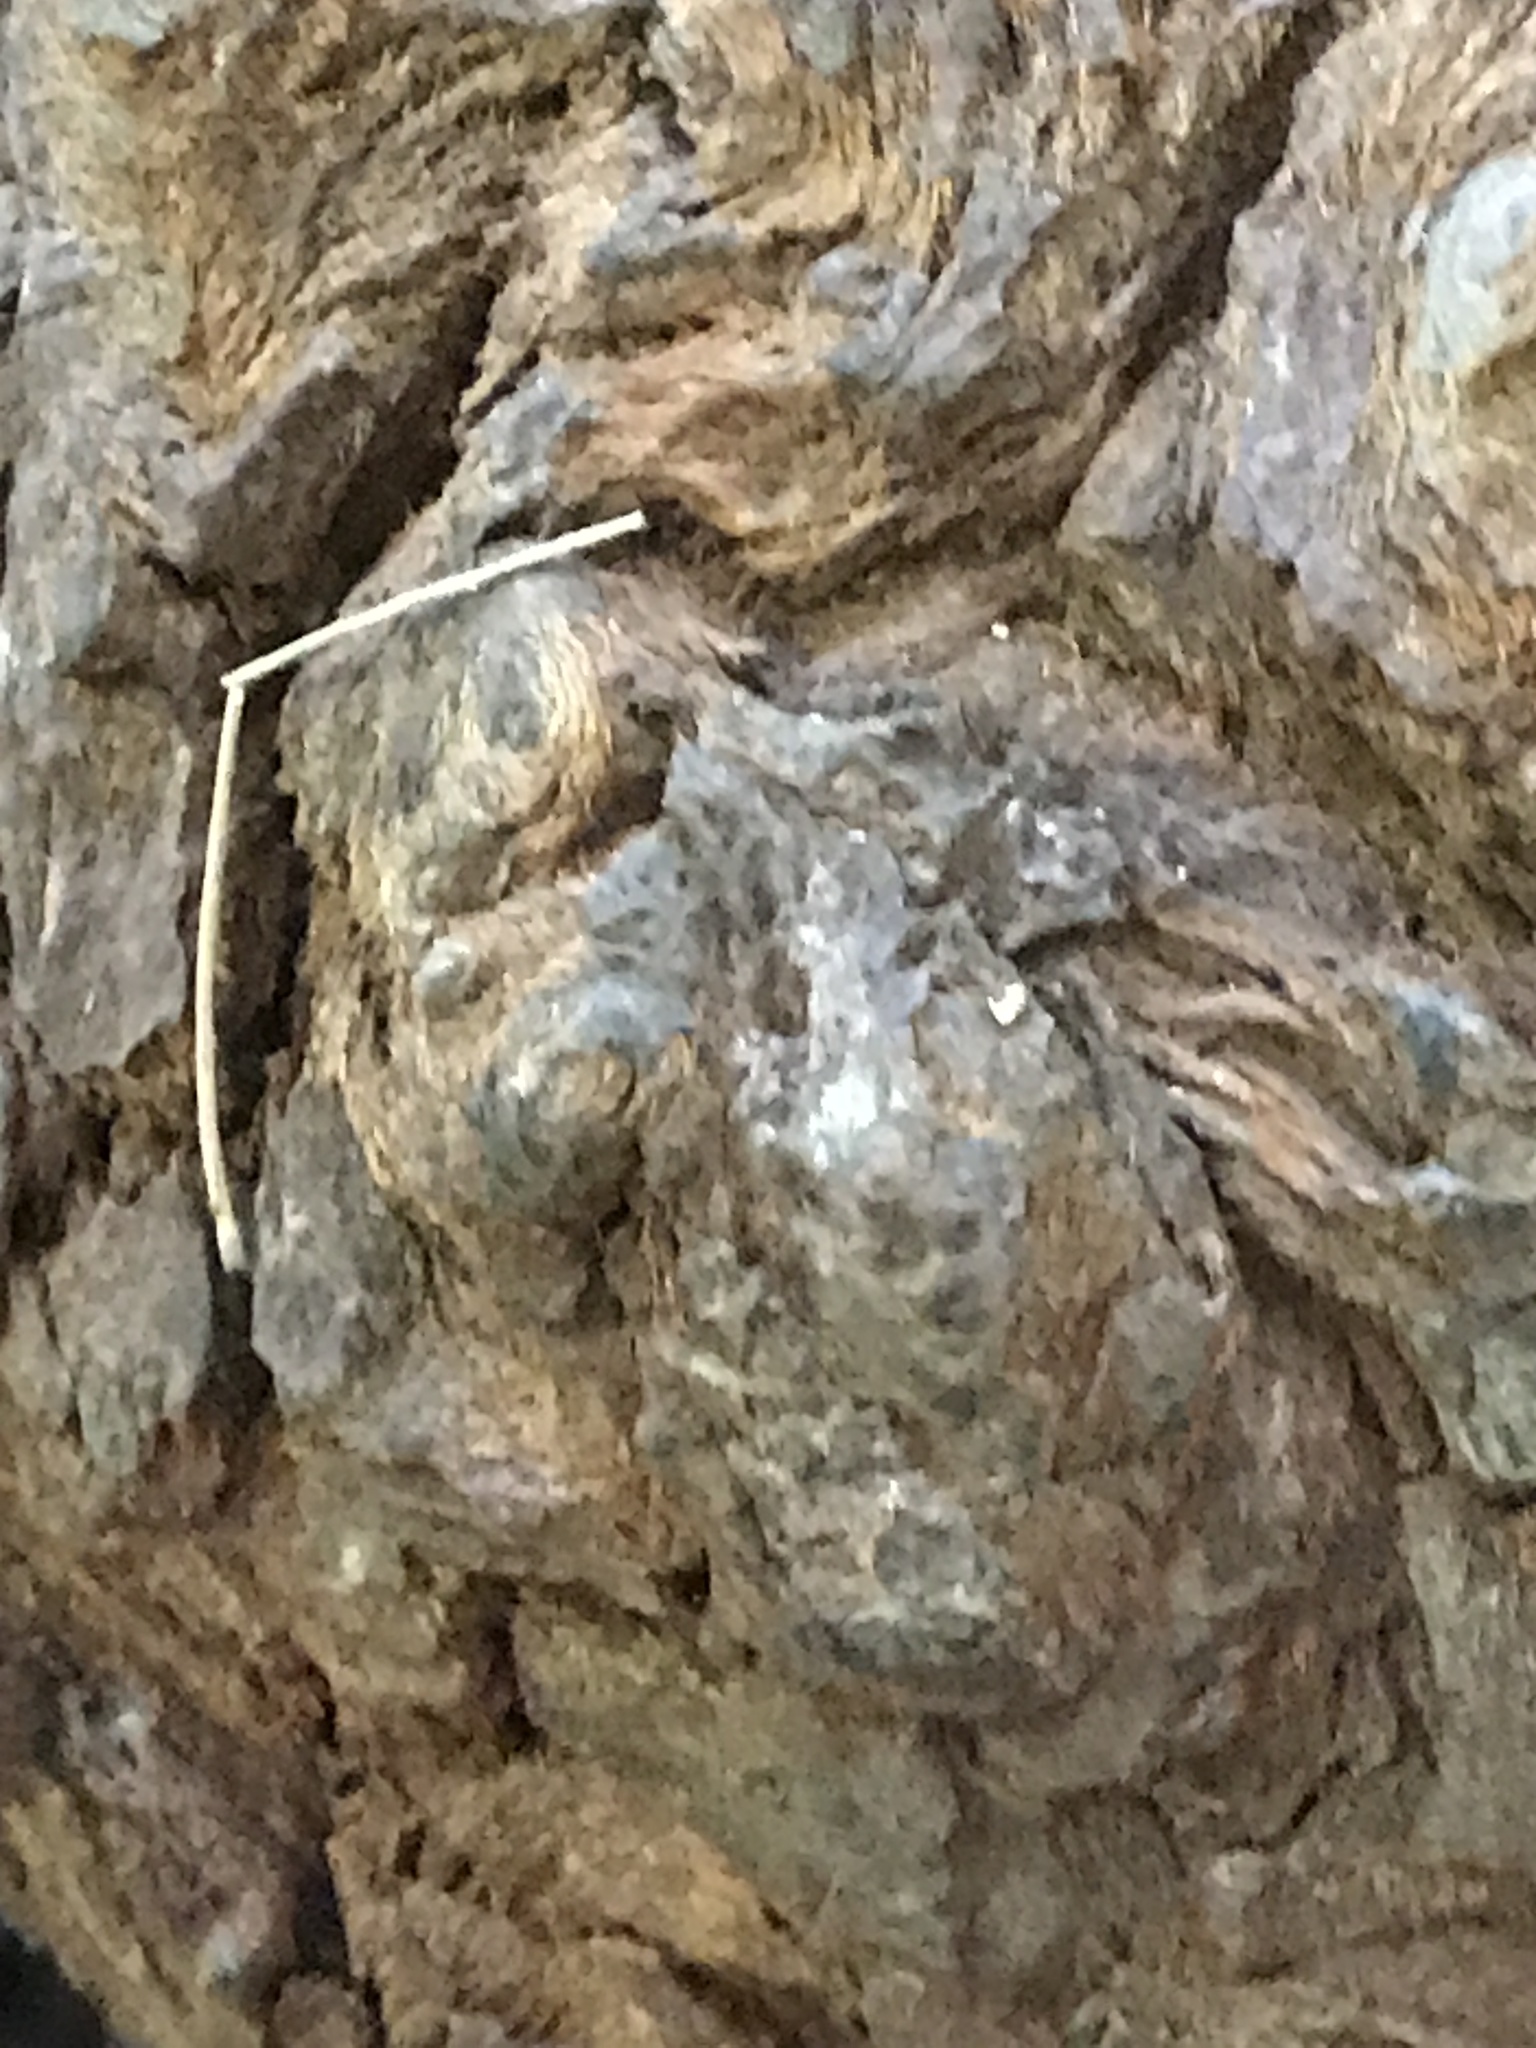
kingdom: Plantae
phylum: Tracheophyta
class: Pinopsida
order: Pinales
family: Cupressaceae
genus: Sequoia
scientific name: Sequoia sempervirens
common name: Coast redwood
